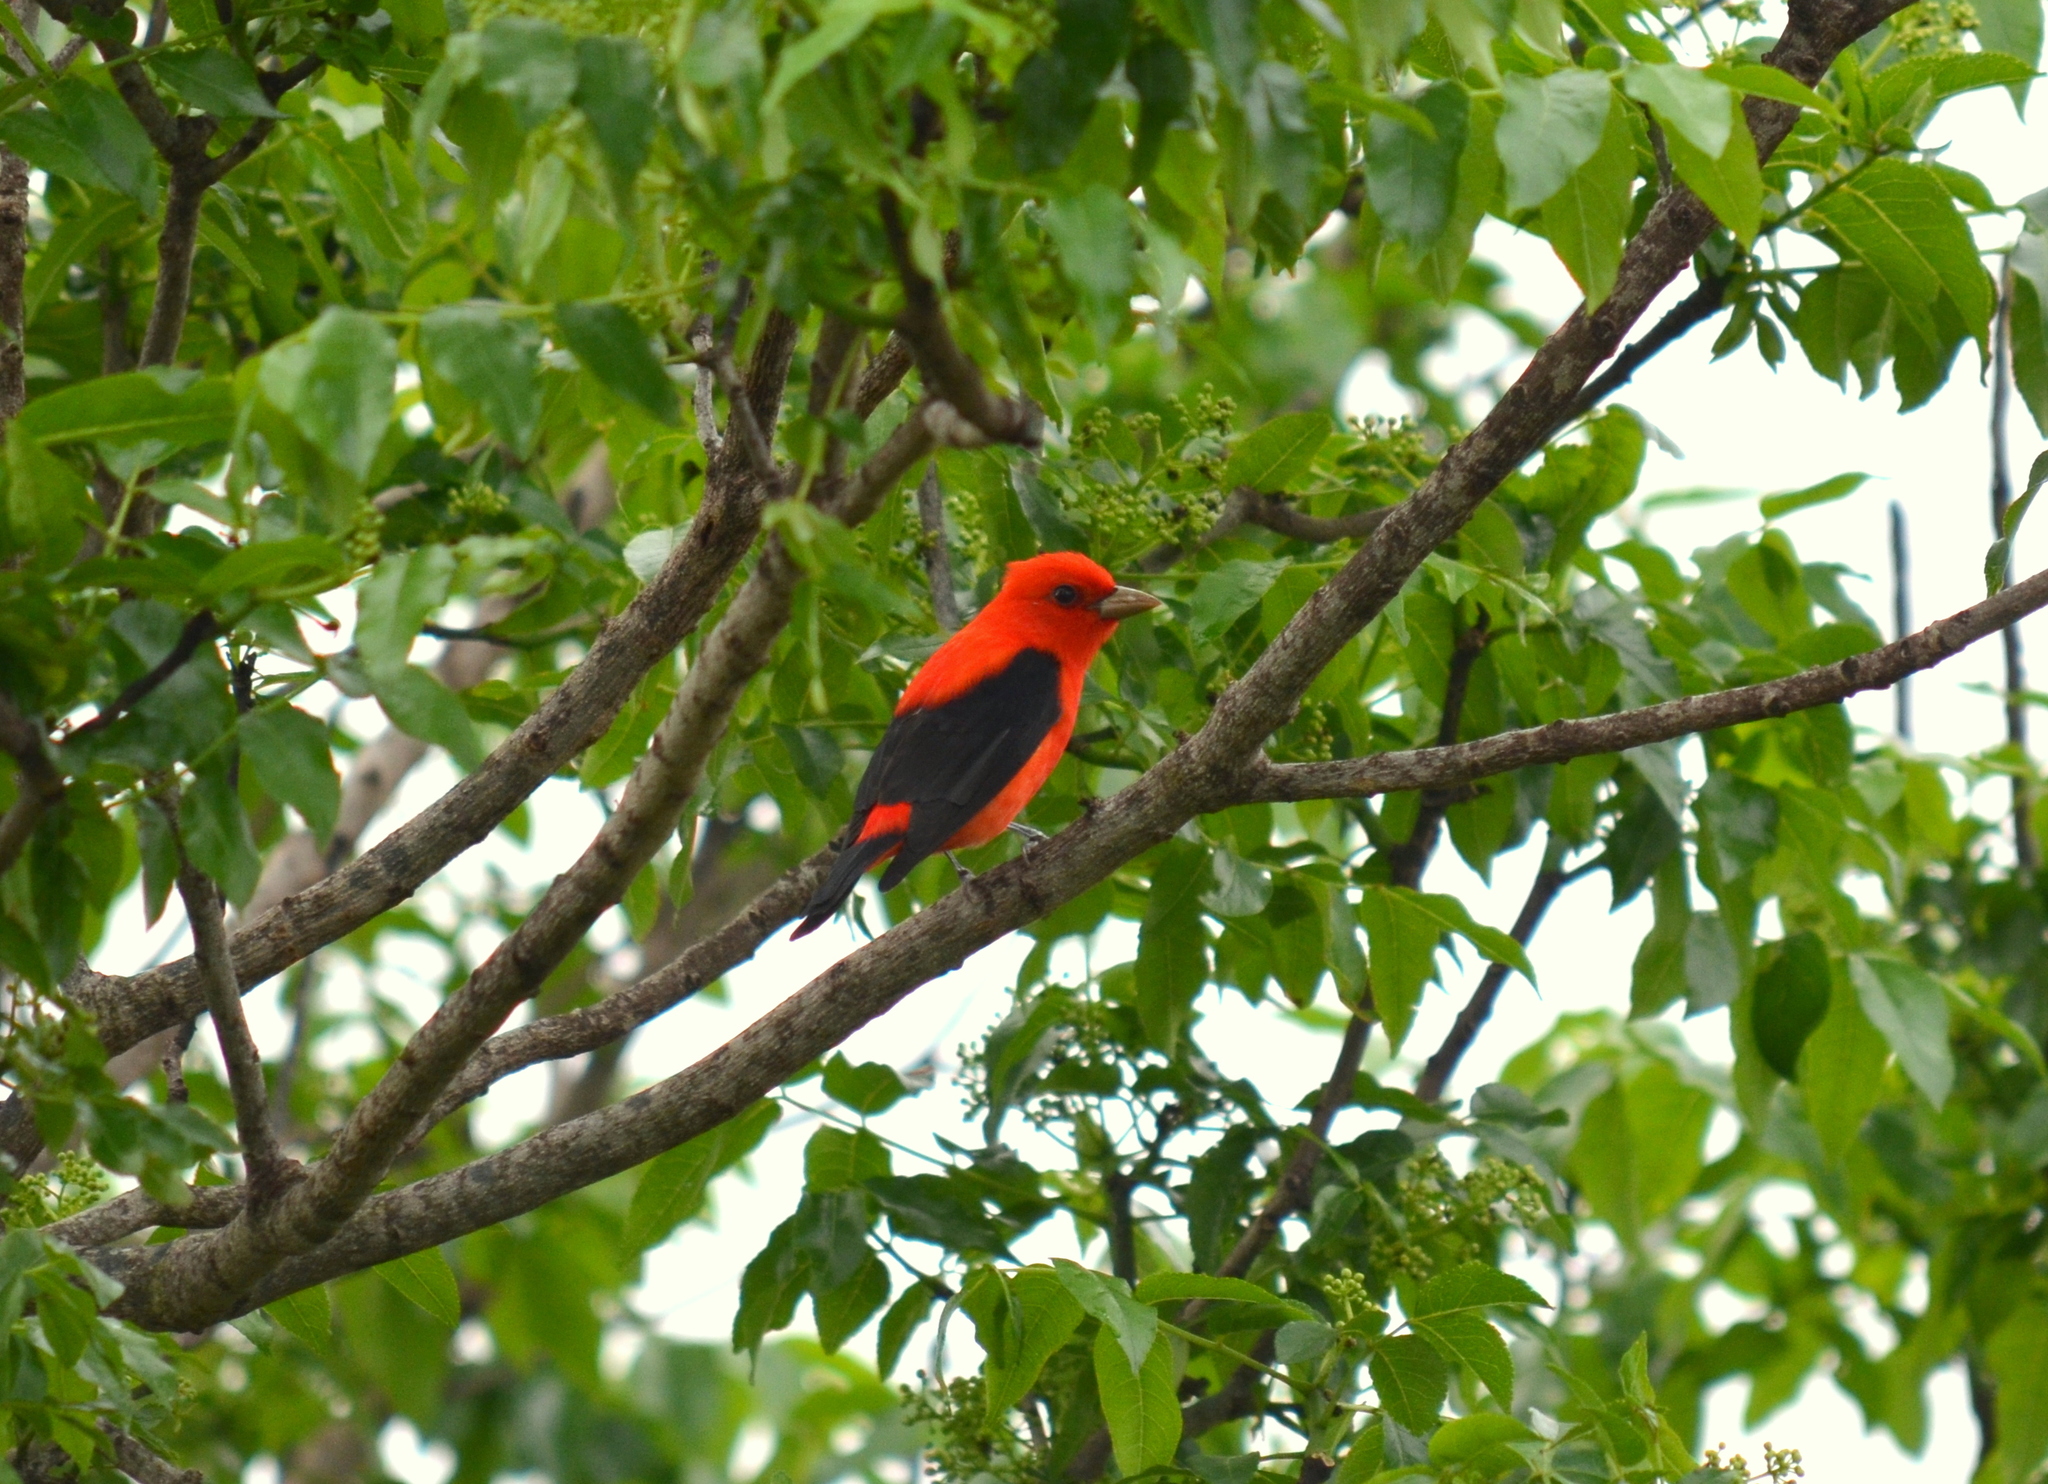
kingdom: Animalia
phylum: Chordata
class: Aves
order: Passeriformes
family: Cardinalidae
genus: Piranga
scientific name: Piranga olivacea
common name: Scarlet tanager
